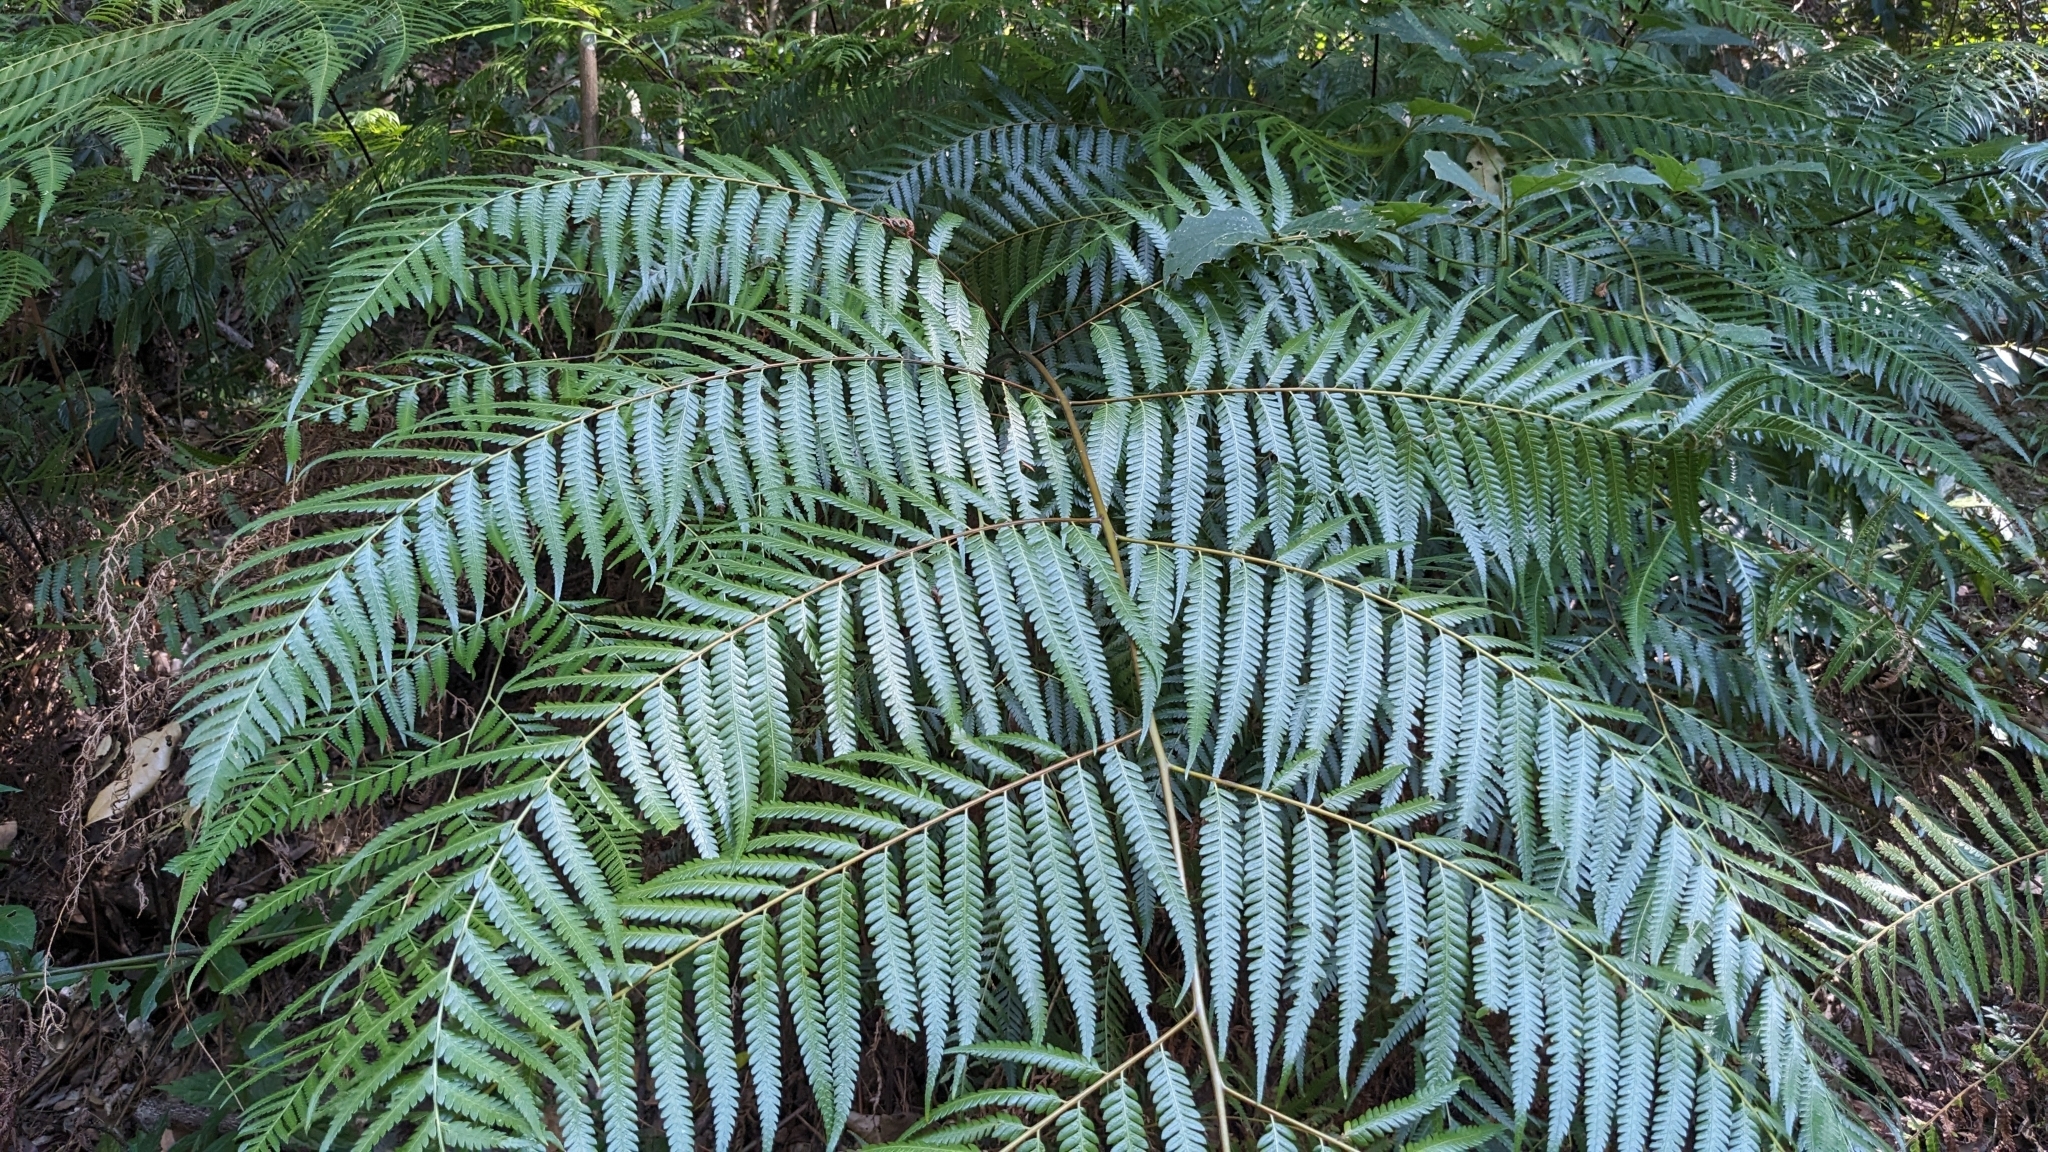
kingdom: Plantae
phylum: Tracheophyta
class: Polypodiopsida
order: Cyatheales
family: Cibotiaceae
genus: Cibotium
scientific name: Cibotium taiwanense
